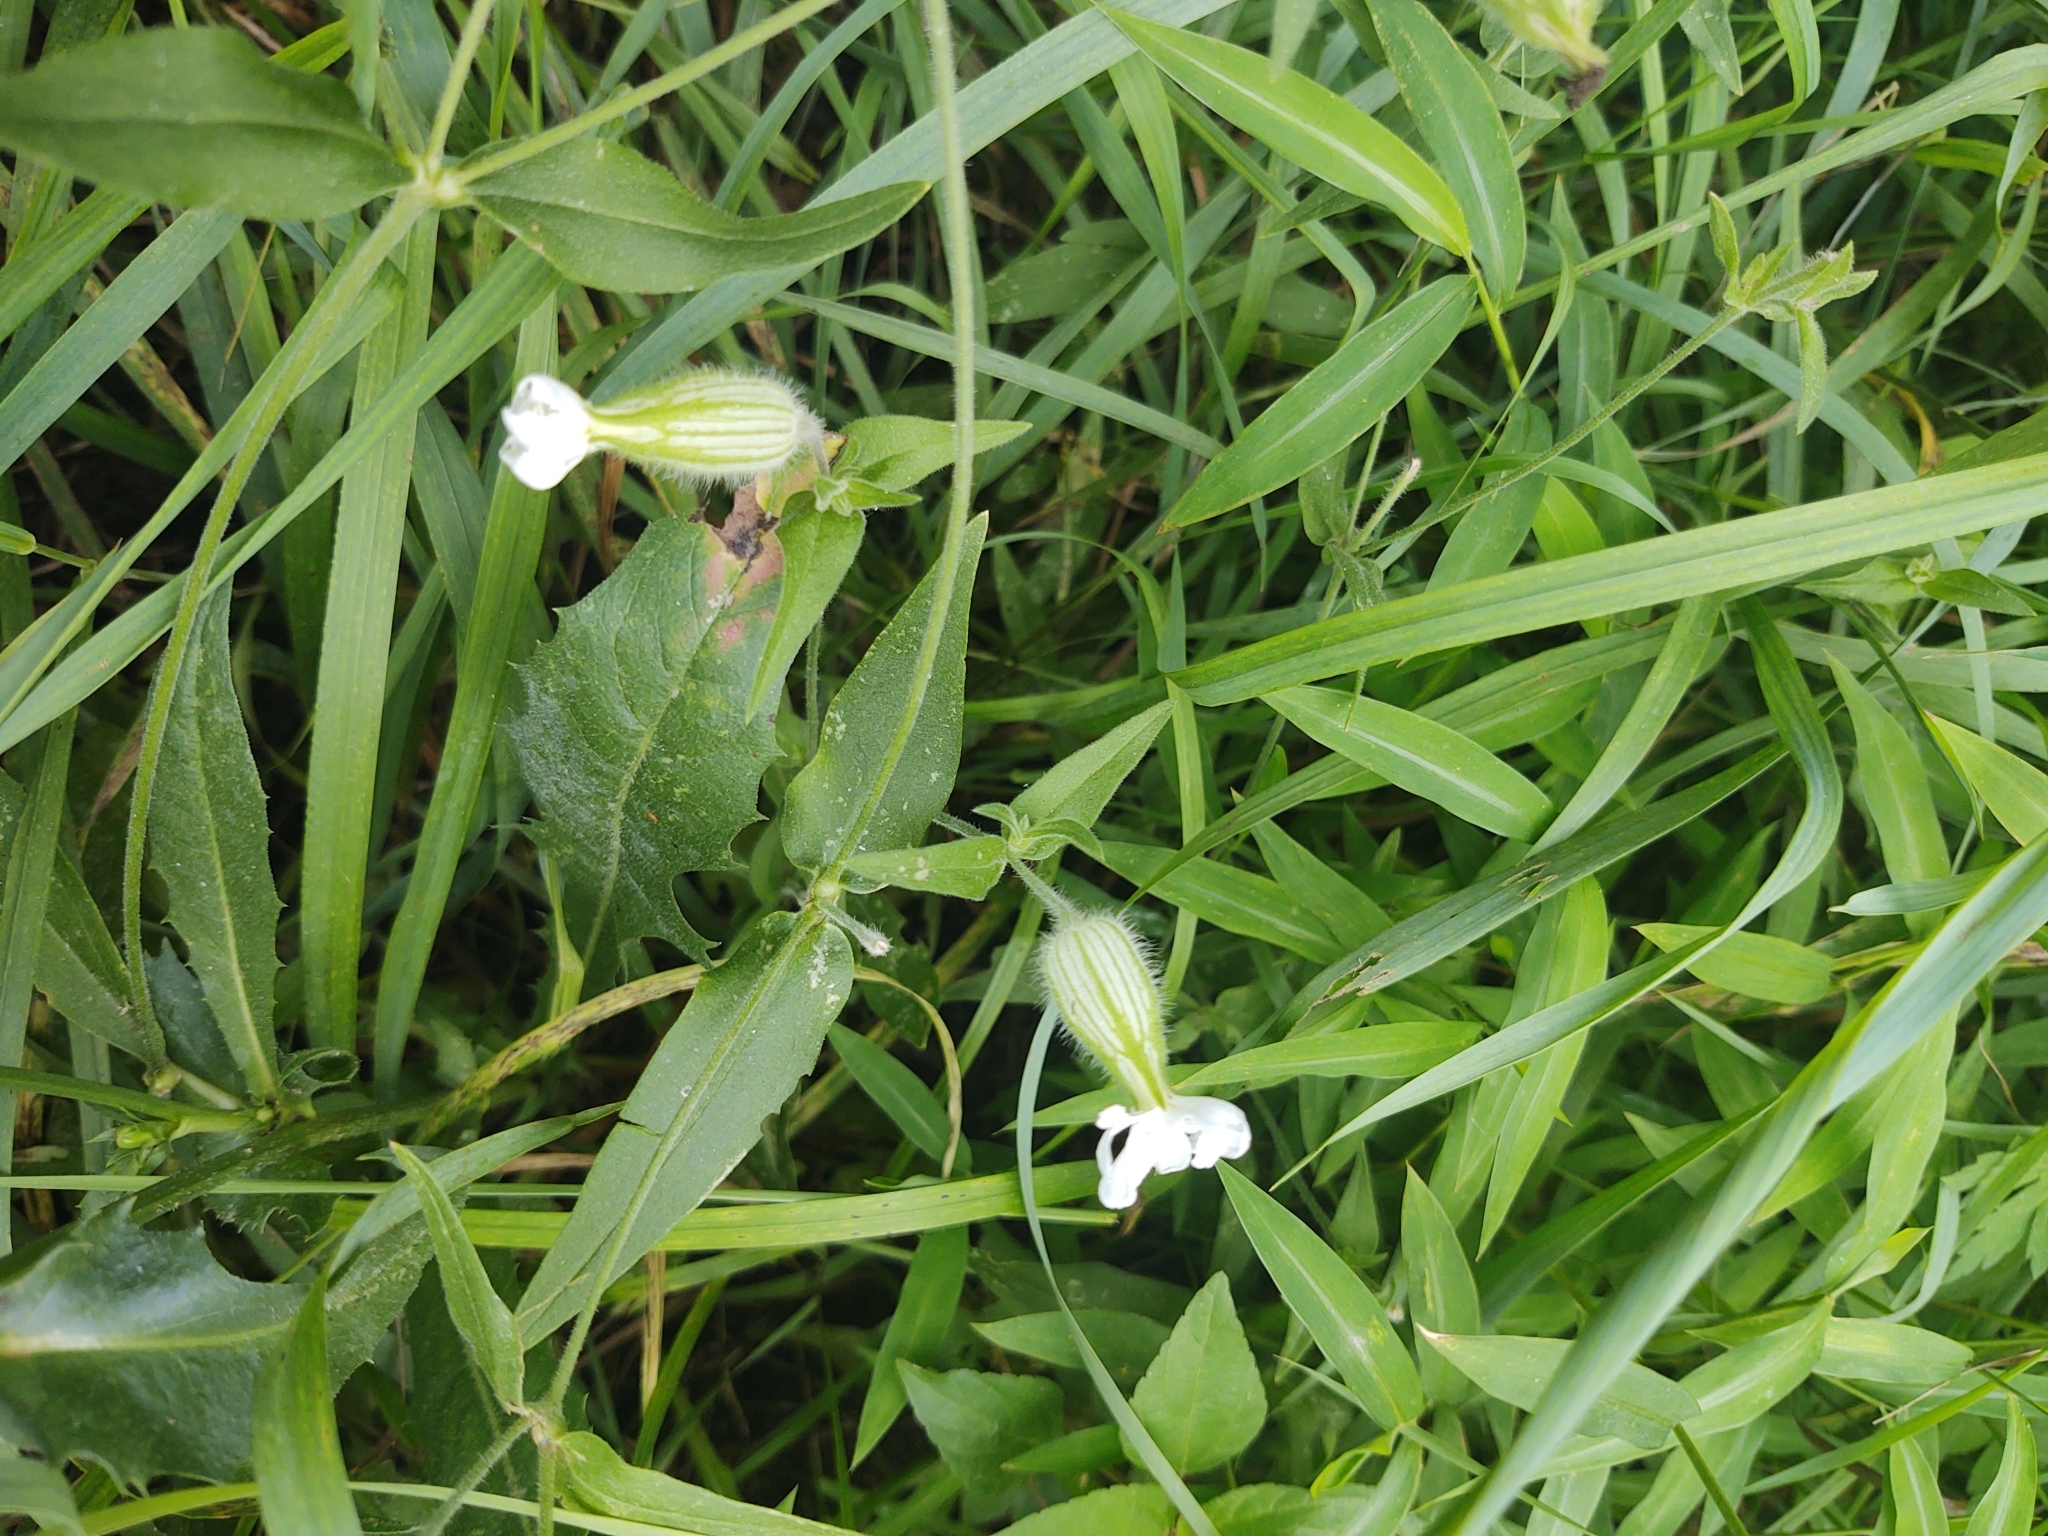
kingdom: Plantae
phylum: Tracheophyta
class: Magnoliopsida
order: Caryophyllales
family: Caryophyllaceae
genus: Silene
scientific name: Silene latifolia
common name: White campion
